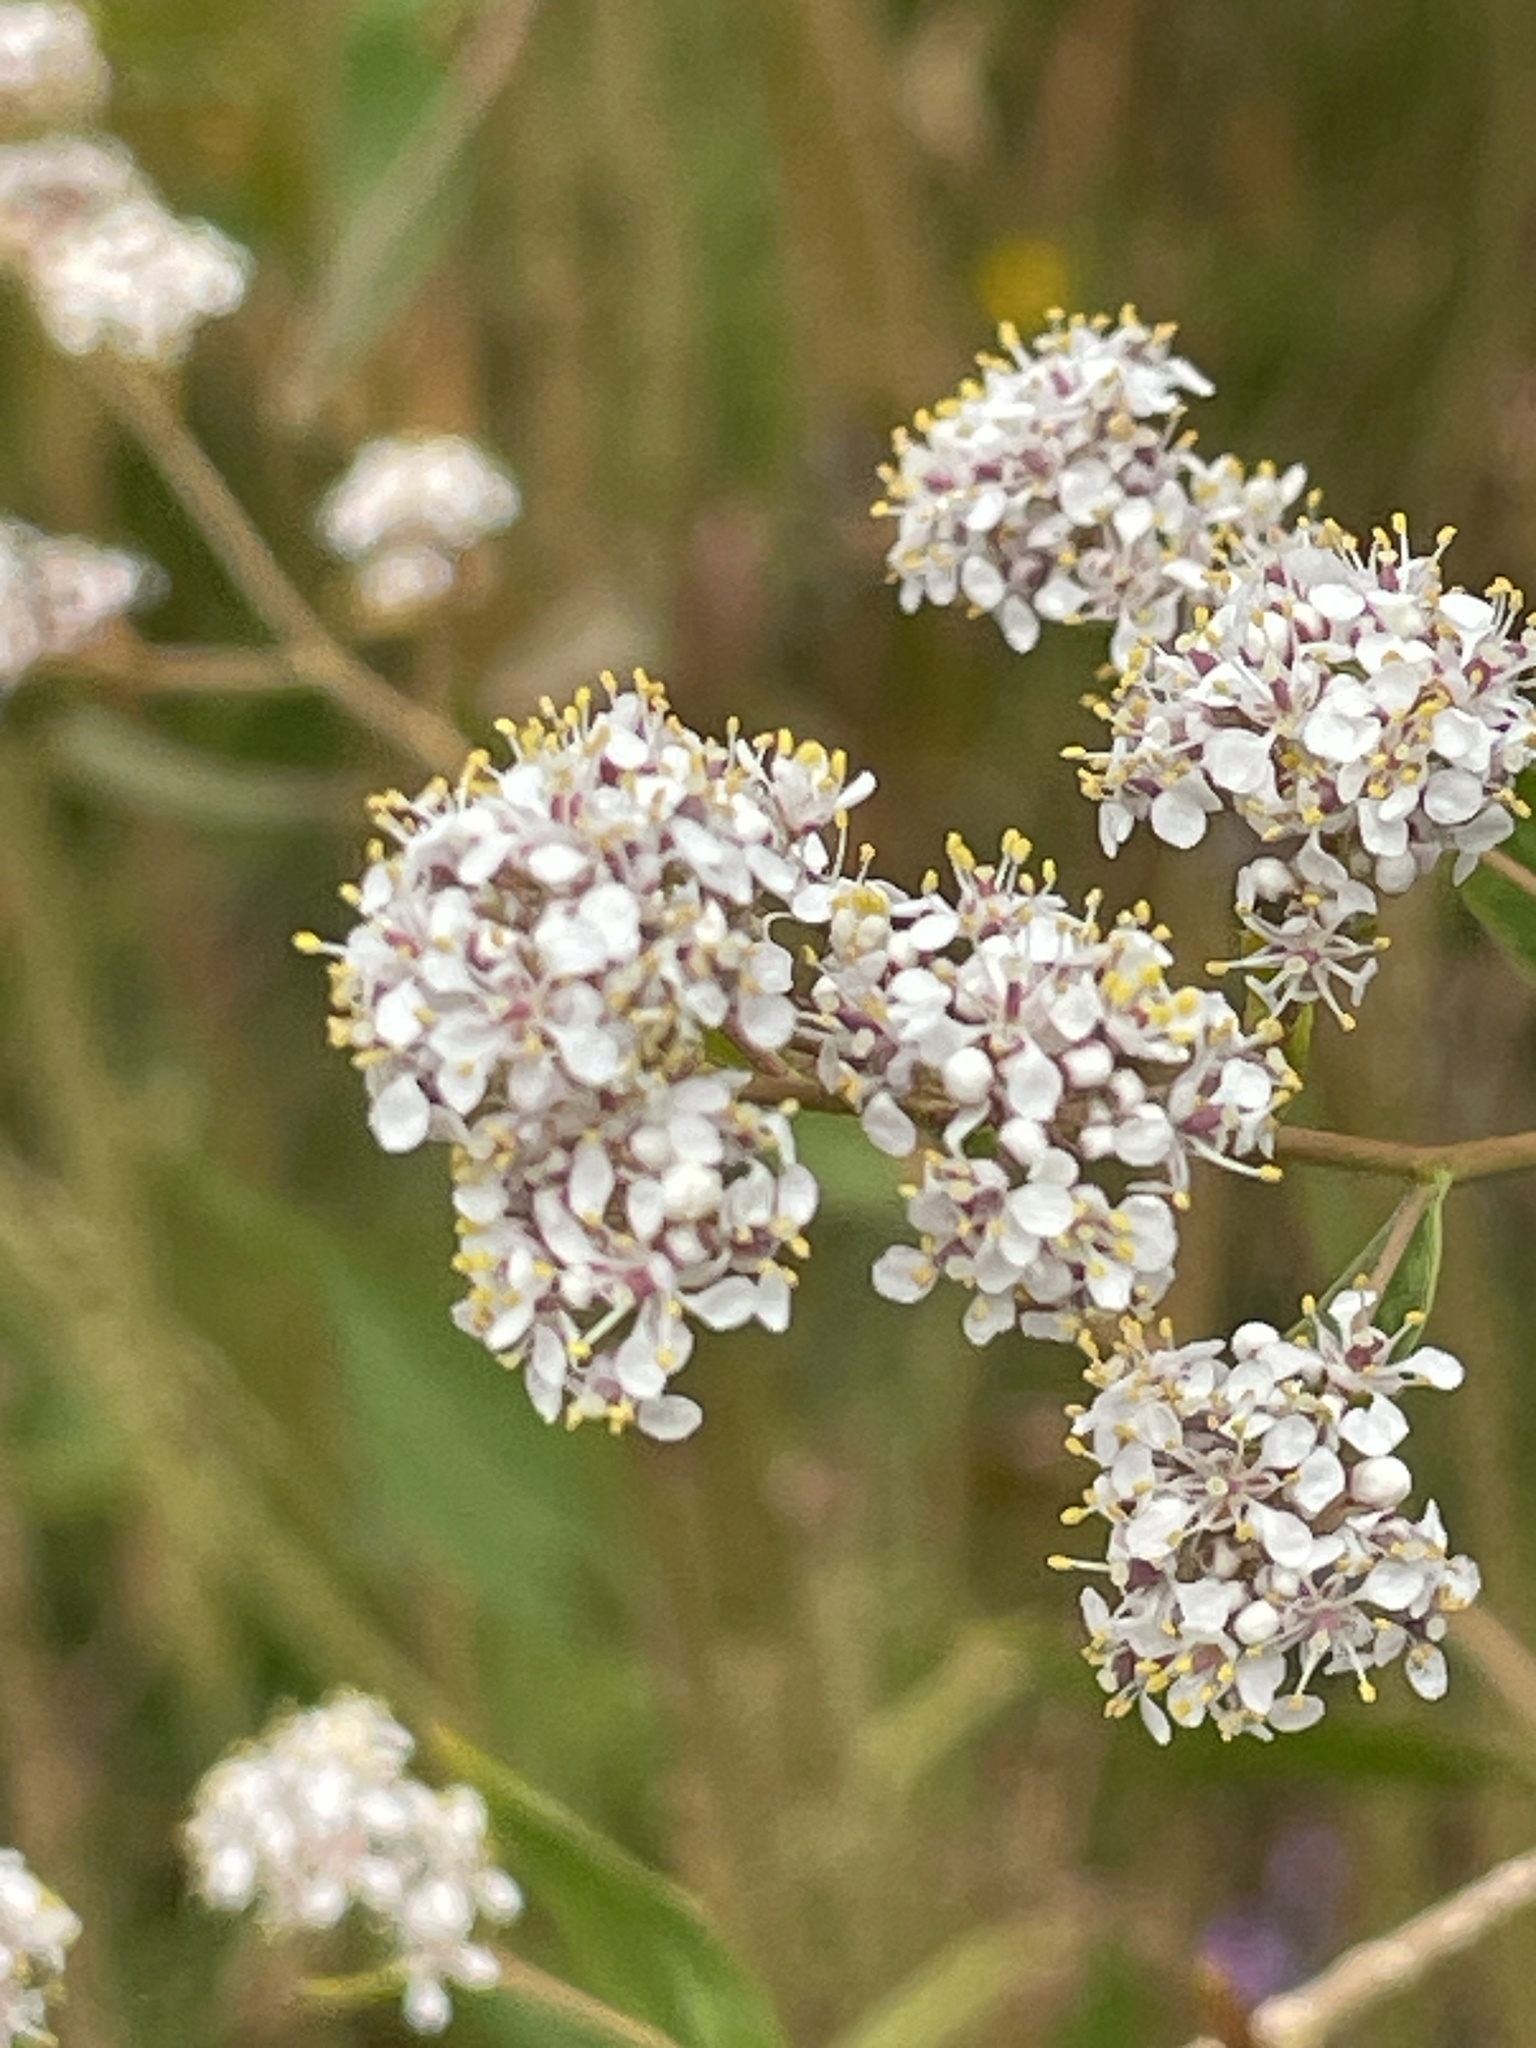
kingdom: Plantae
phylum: Tracheophyta
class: Magnoliopsida
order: Brassicales
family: Brassicaceae
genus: Lepidium
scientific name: Lepidium latifolium
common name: Dittander
